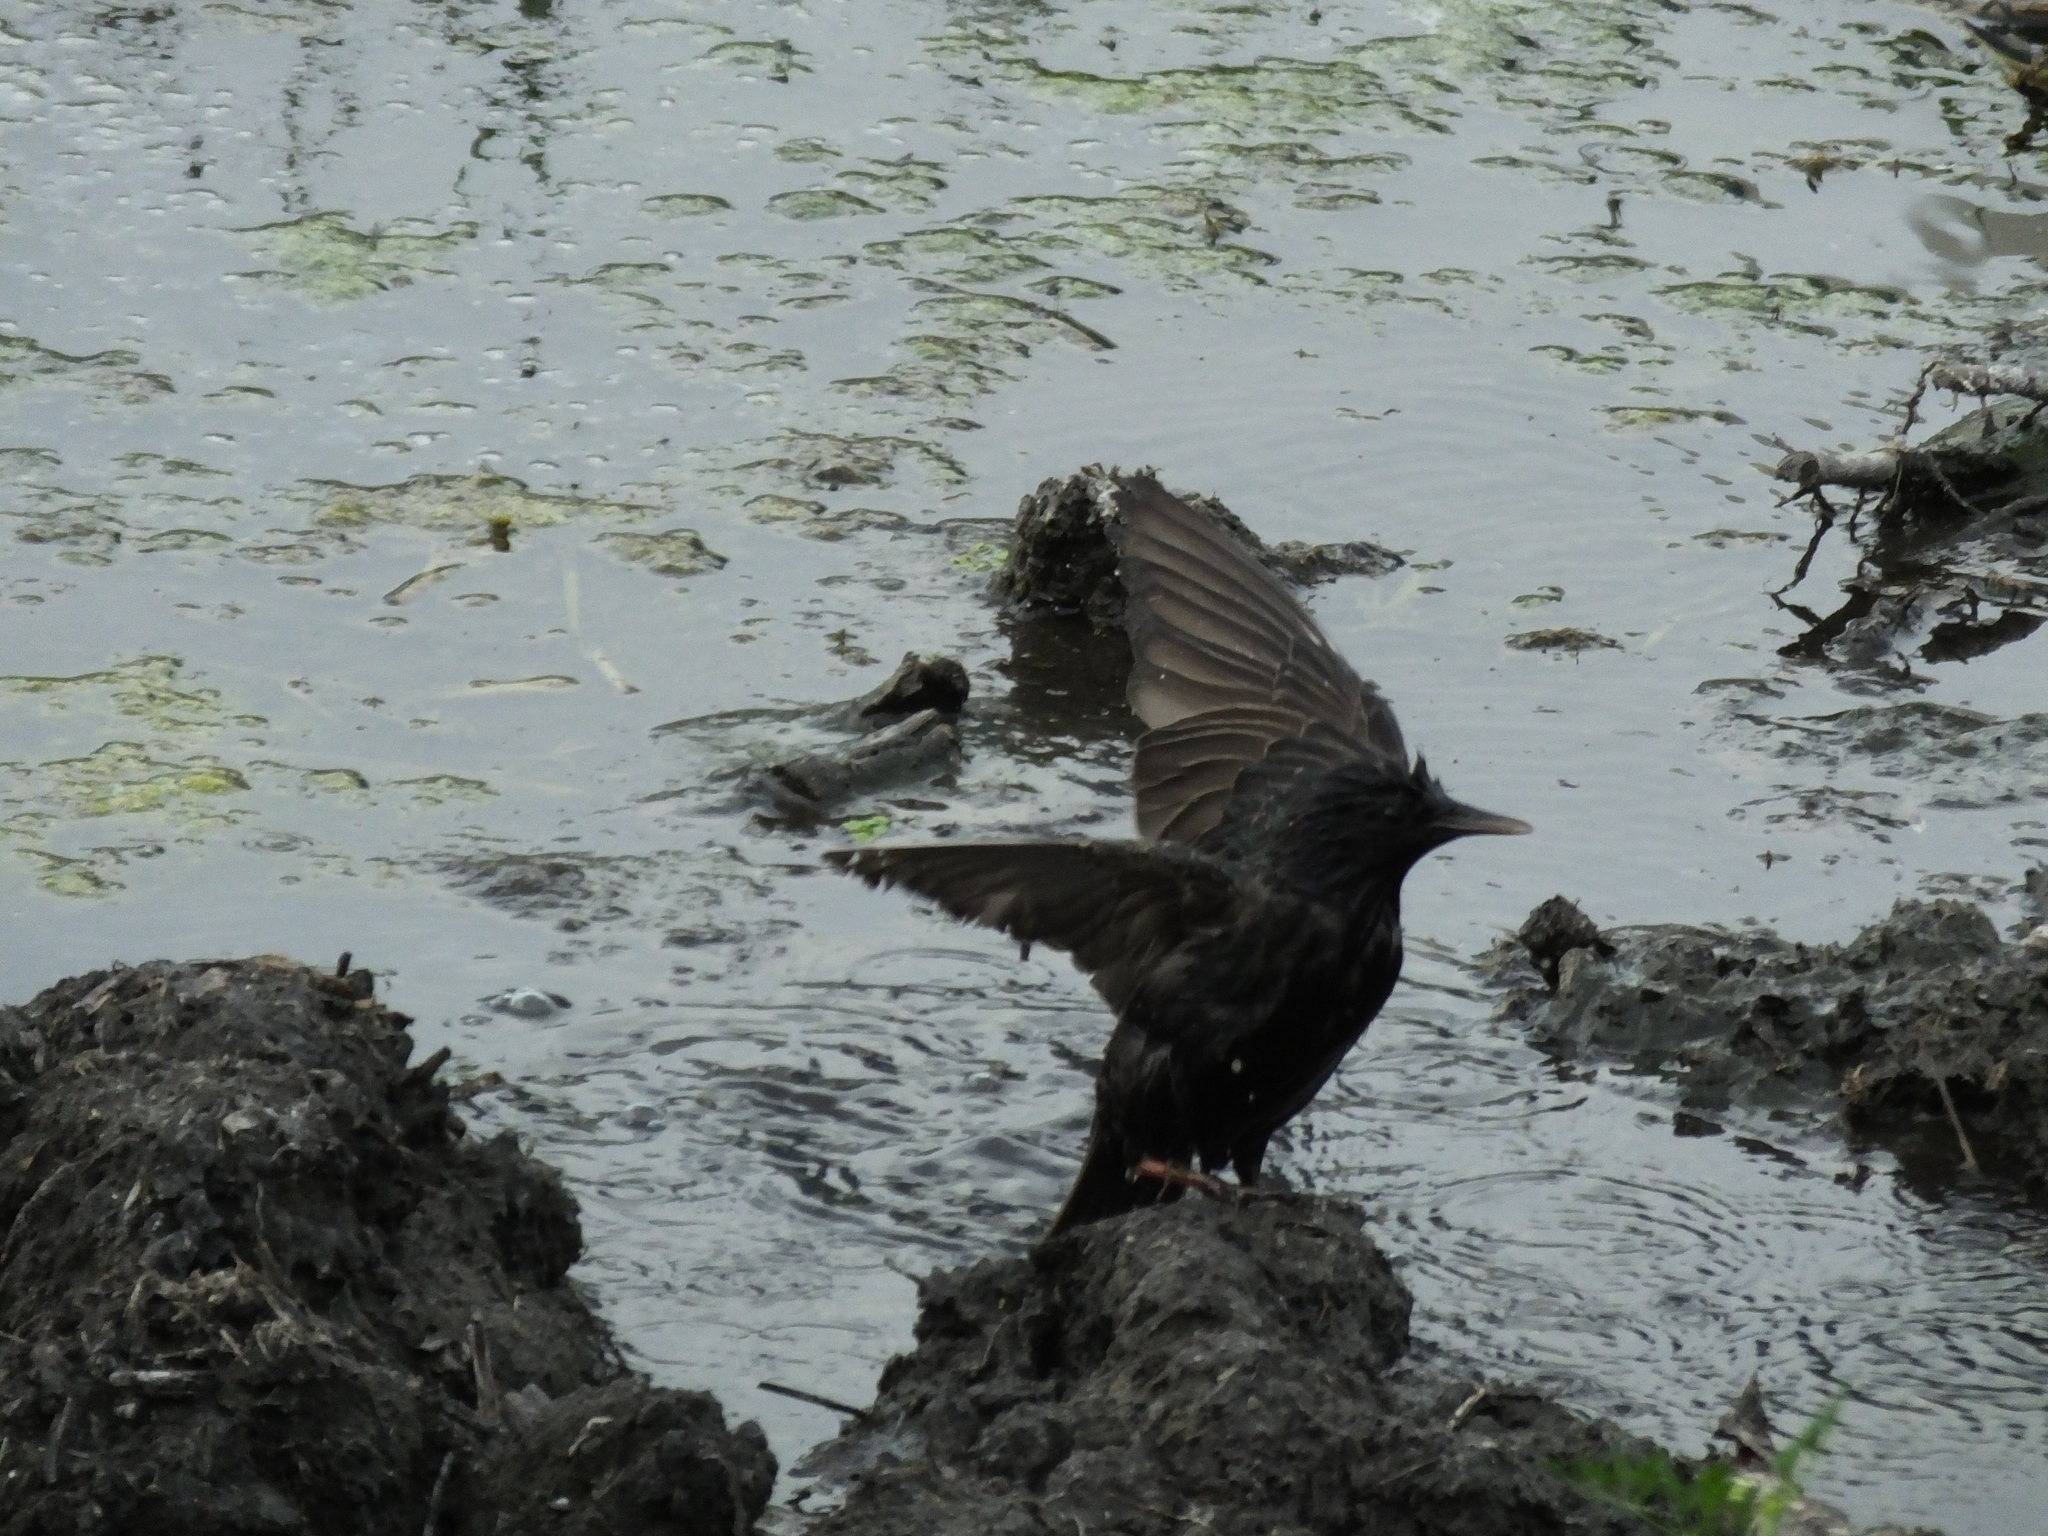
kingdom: Animalia
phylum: Chordata
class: Aves
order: Passeriformes
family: Sturnidae
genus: Sturnus
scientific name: Sturnus vulgaris
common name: Common starling
